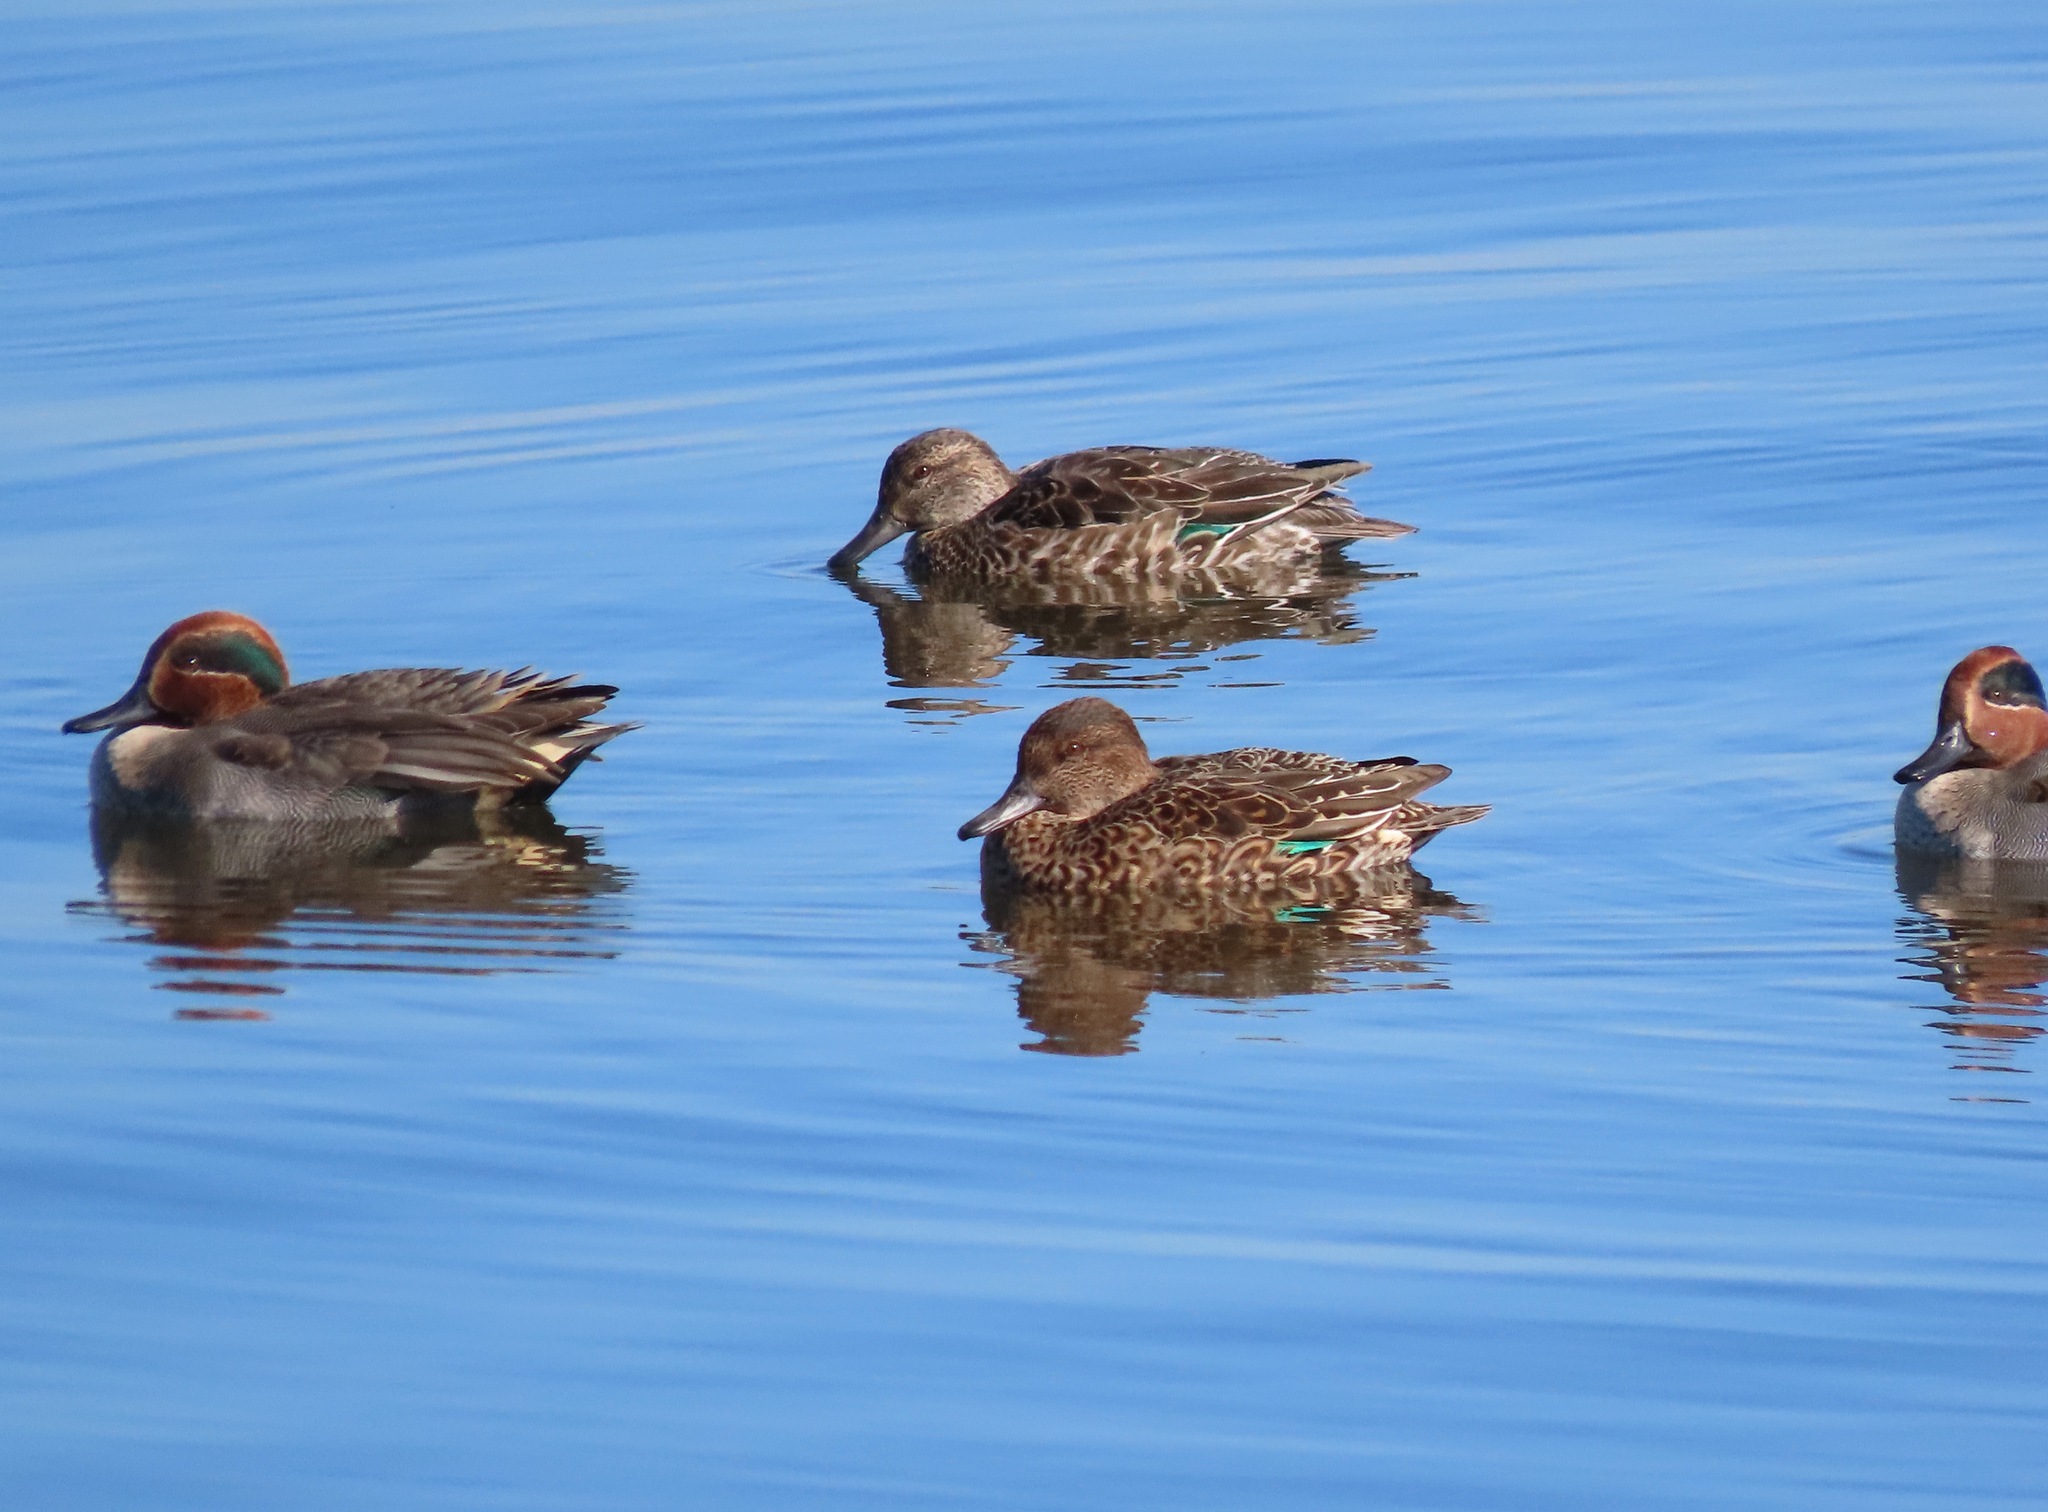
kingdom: Animalia
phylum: Chordata
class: Aves
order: Anseriformes
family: Anatidae
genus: Anas
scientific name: Anas crecca
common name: Eurasian teal
